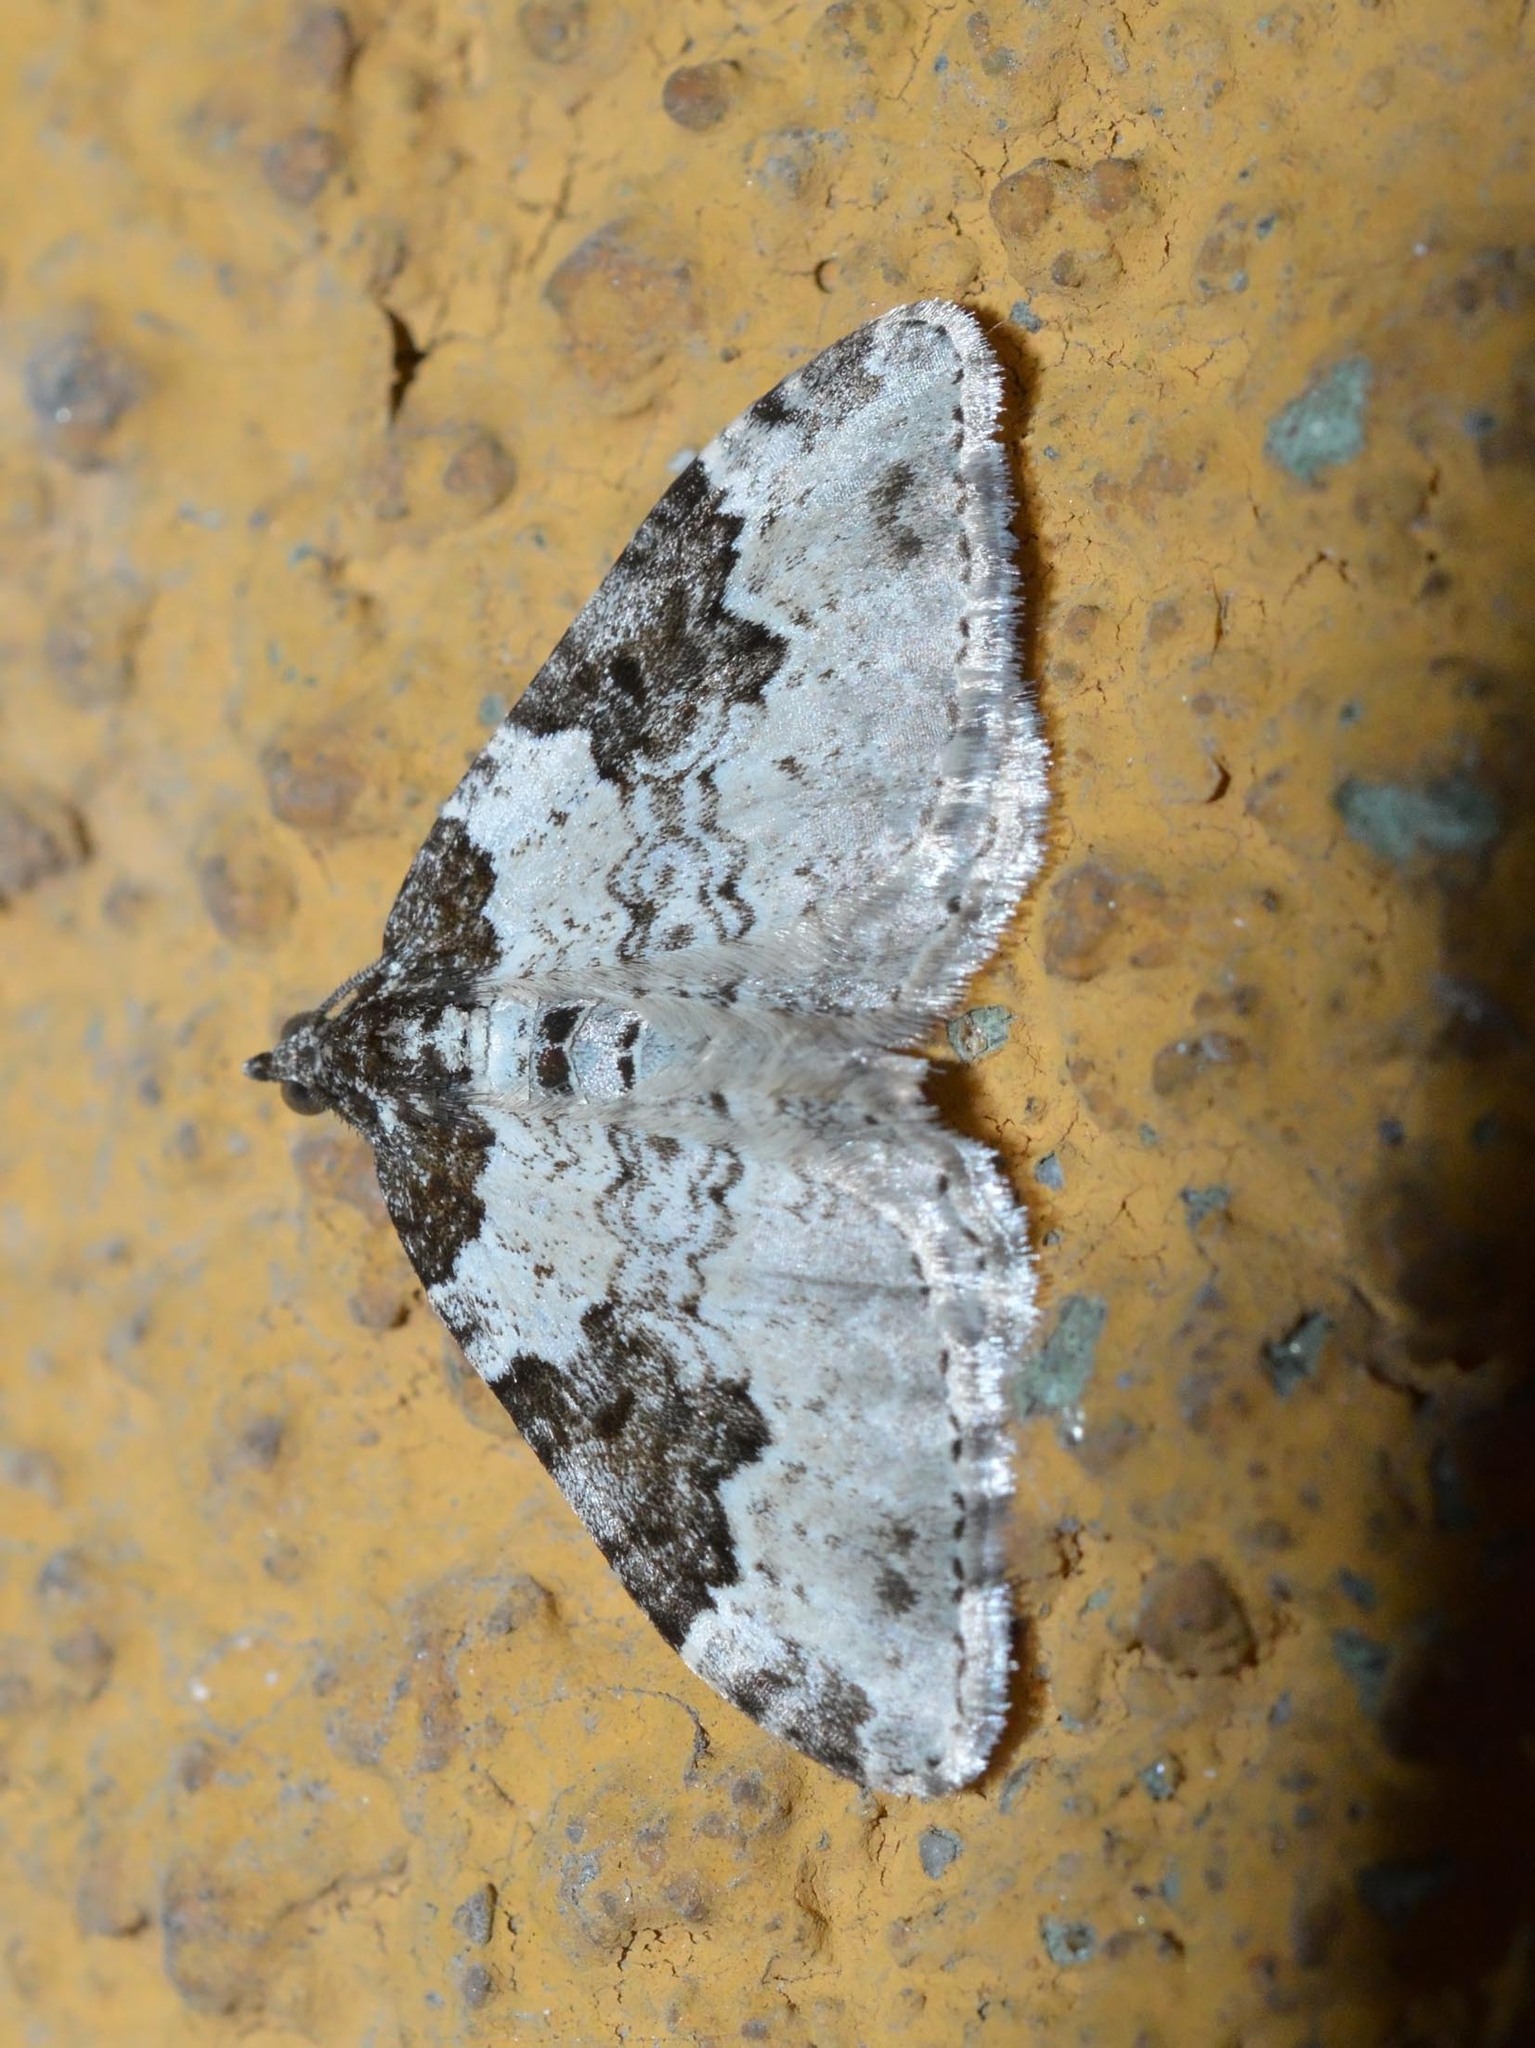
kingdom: Animalia
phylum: Arthropoda
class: Insecta
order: Lepidoptera
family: Geometridae
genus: Xanthorhoe
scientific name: Xanthorhoe fluctuata
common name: Garden carpet
